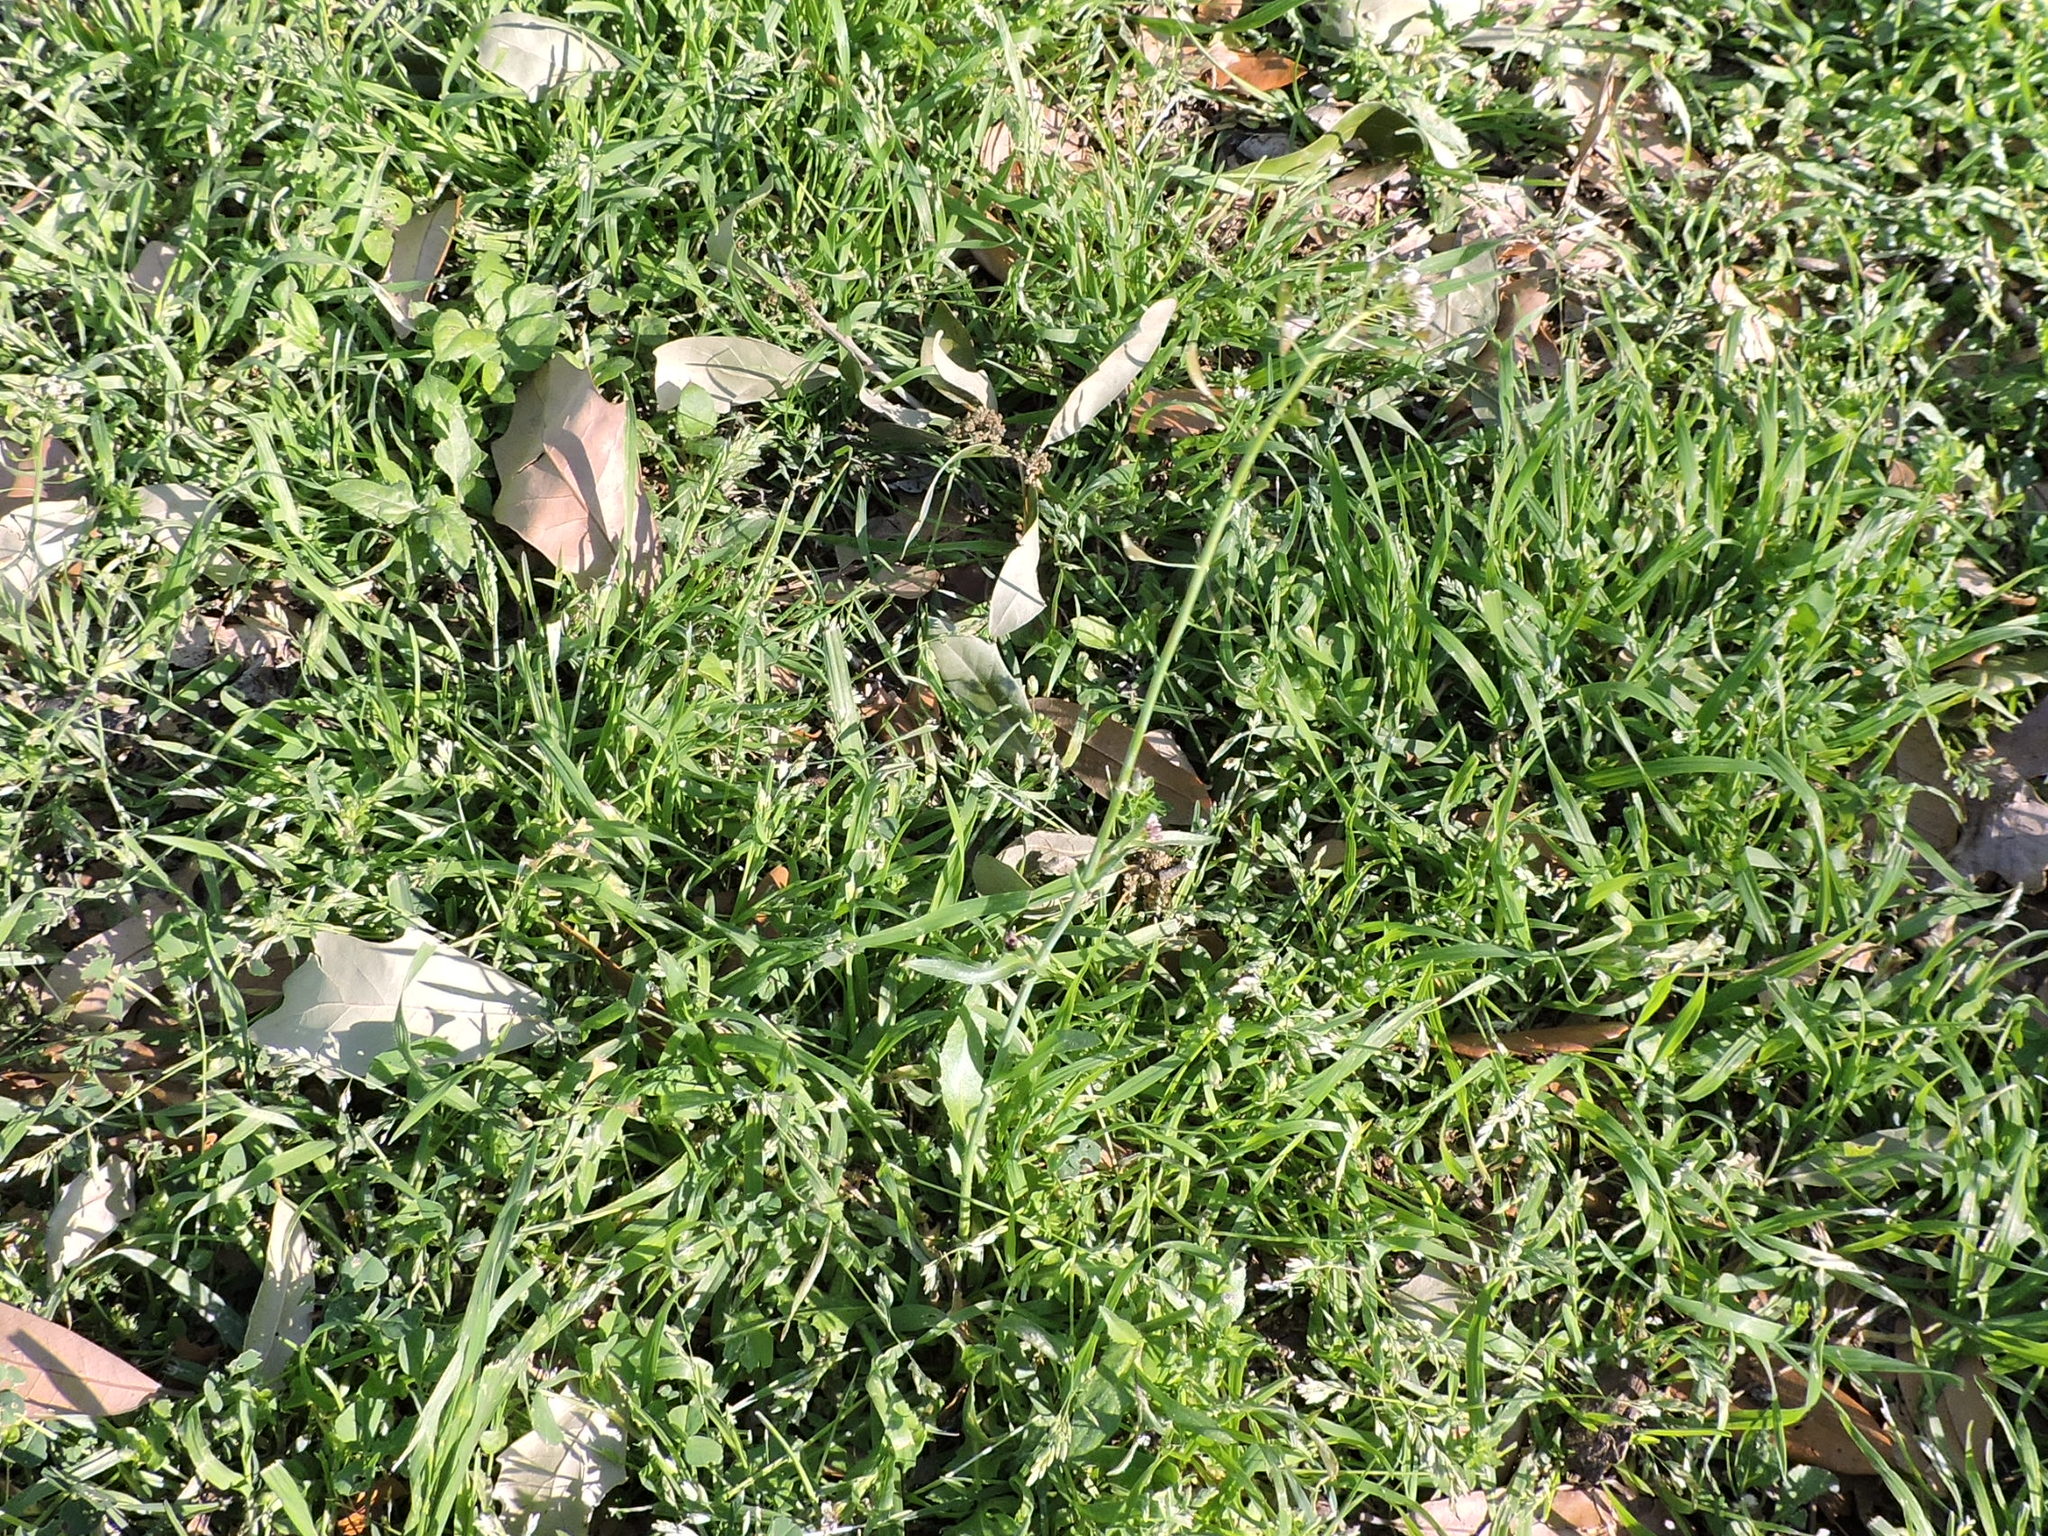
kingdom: Plantae
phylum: Tracheophyta
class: Magnoliopsida
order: Brassicales
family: Brassicaceae
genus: Capsella
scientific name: Capsella bursa-pastoris
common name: Shepherd's purse
